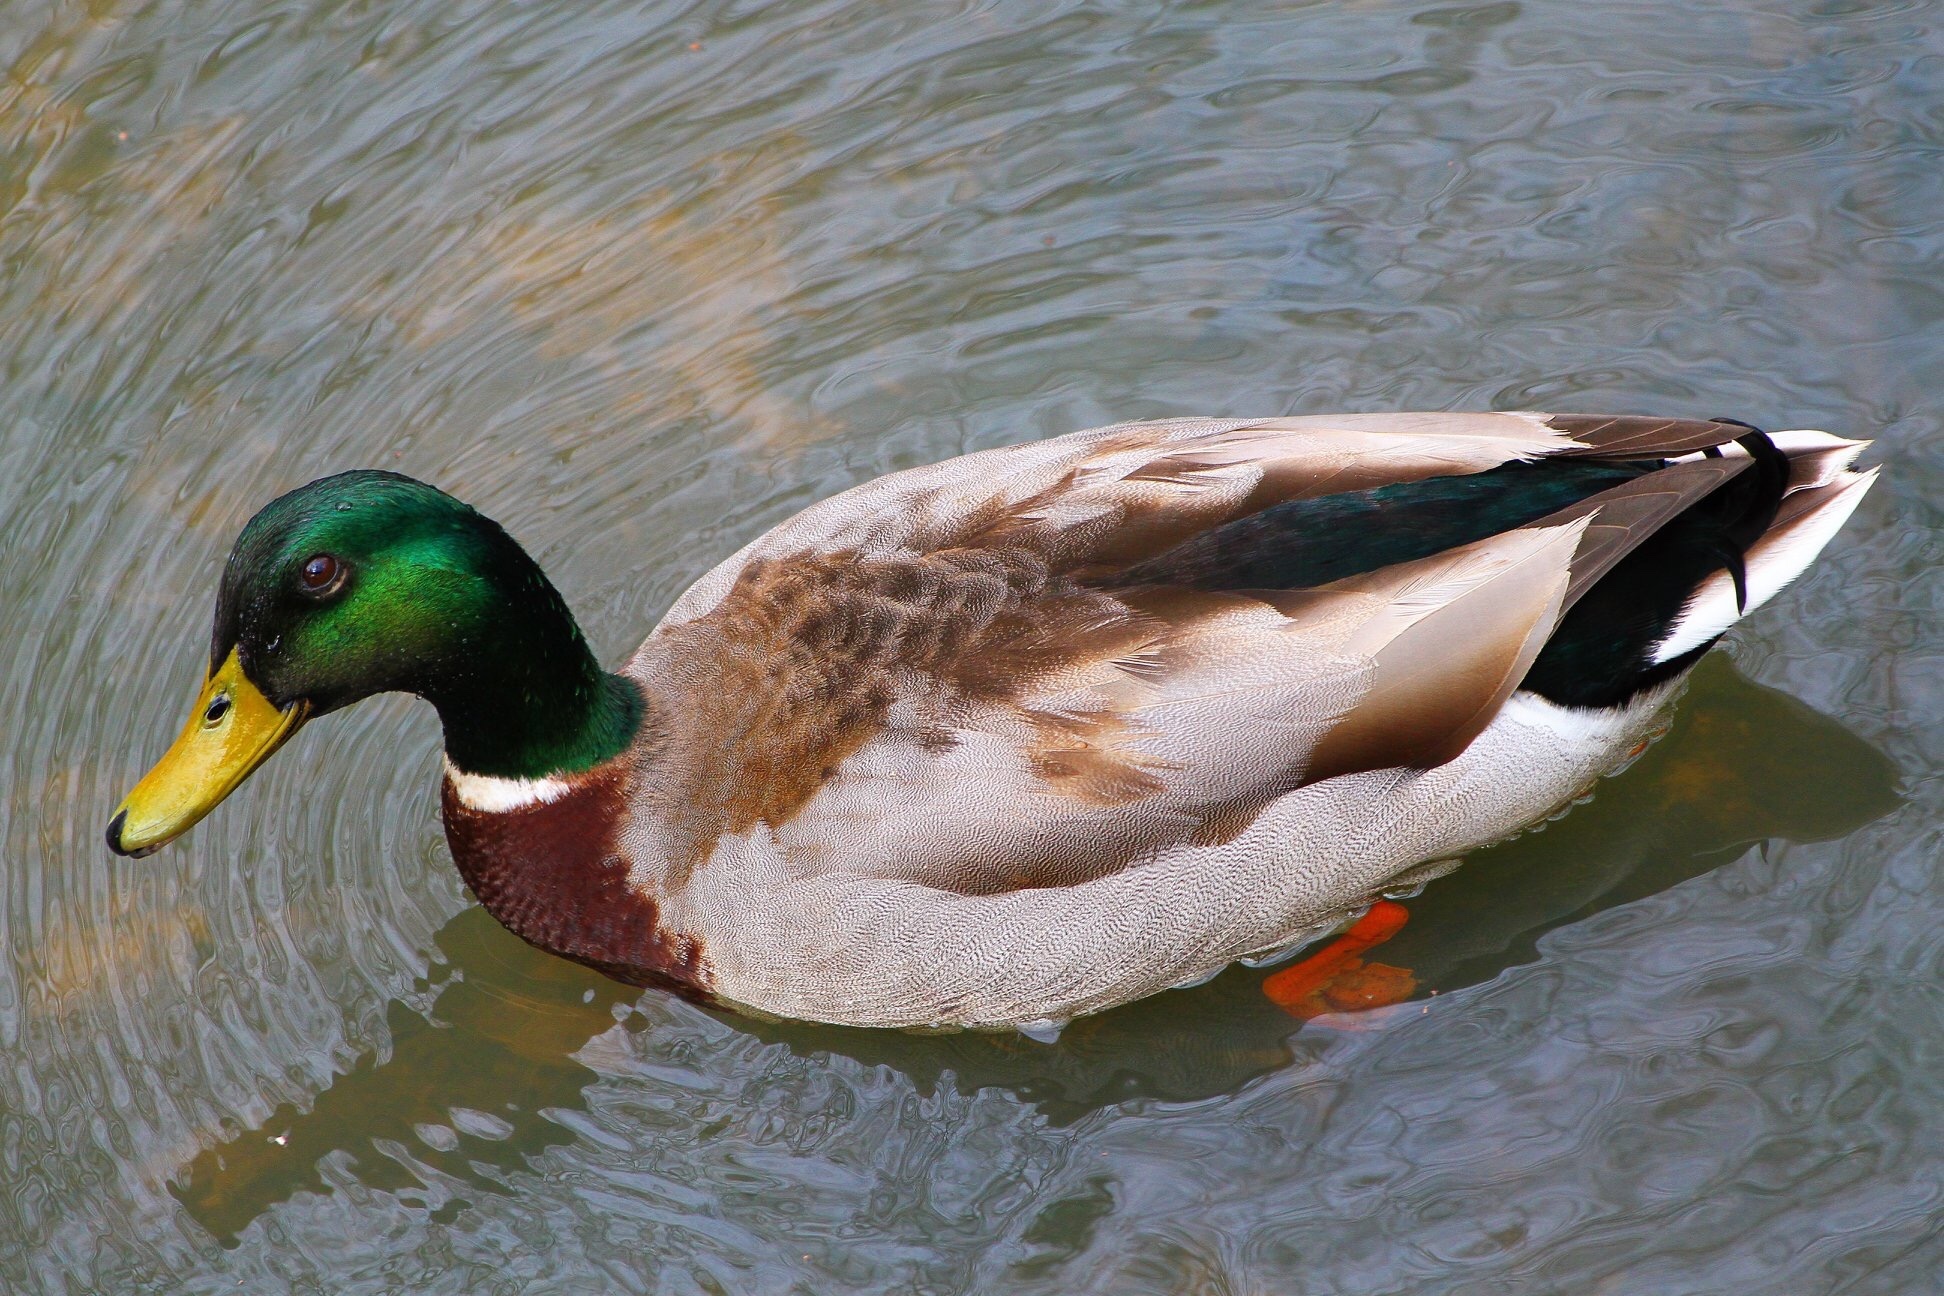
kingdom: Animalia
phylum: Chordata
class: Aves
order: Anseriformes
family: Anatidae
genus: Anas
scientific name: Anas platyrhynchos
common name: Mallard
